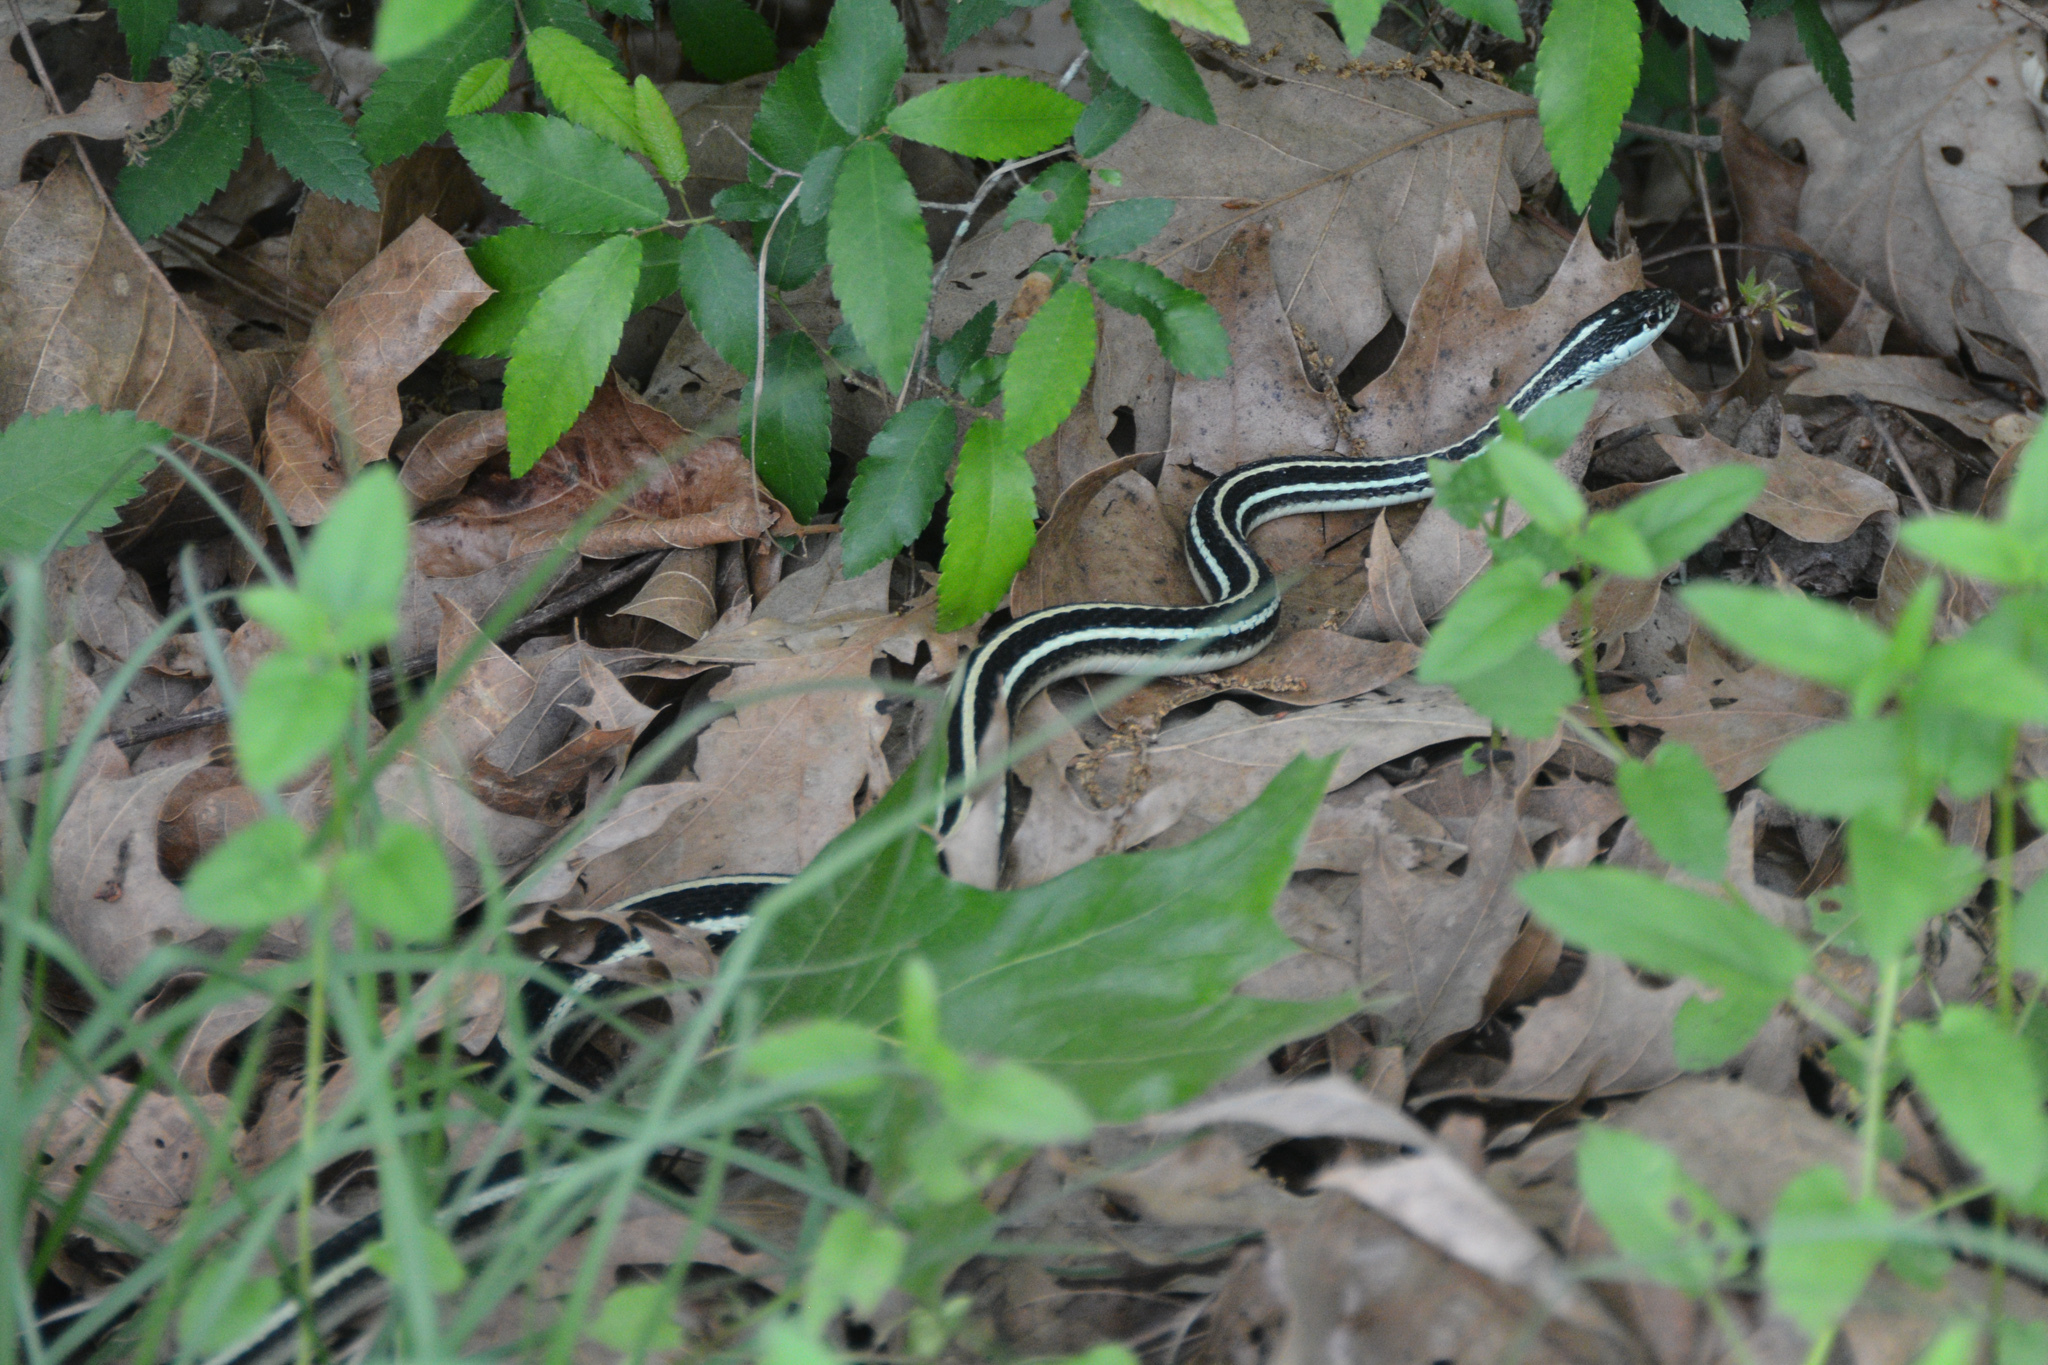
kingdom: Animalia
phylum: Chordata
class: Squamata
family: Colubridae
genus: Thamnophis
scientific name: Thamnophis proximus
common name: Western ribbon snake
